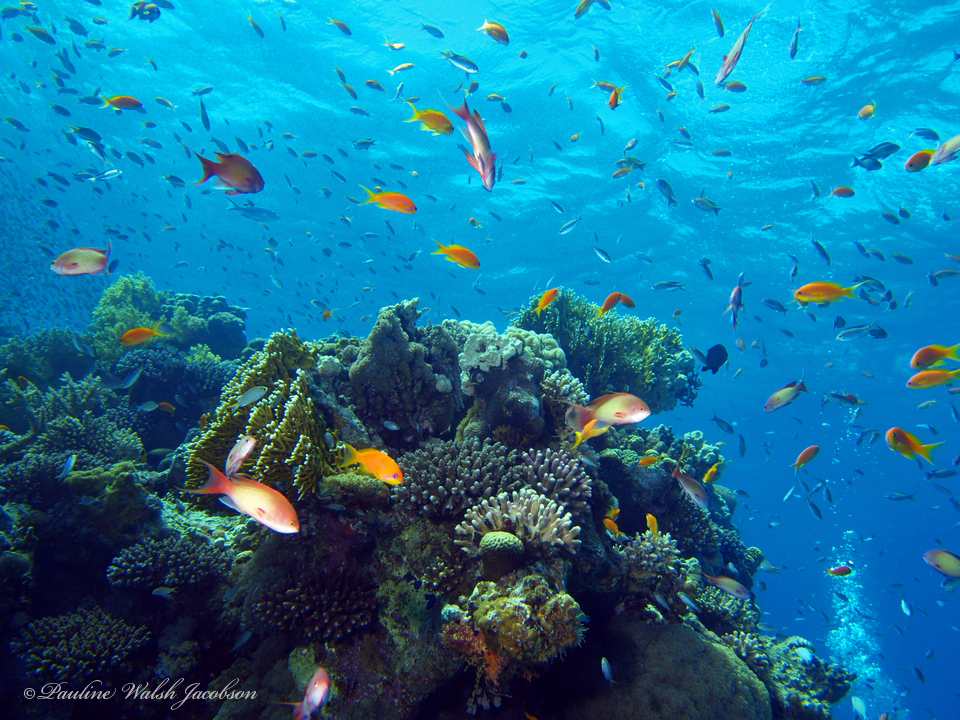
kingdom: Animalia
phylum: Chordata
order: Perciformes
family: Serranidae
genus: Pseudanthias
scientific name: Pseudanthias squamipinnis
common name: Scalefin anthias
